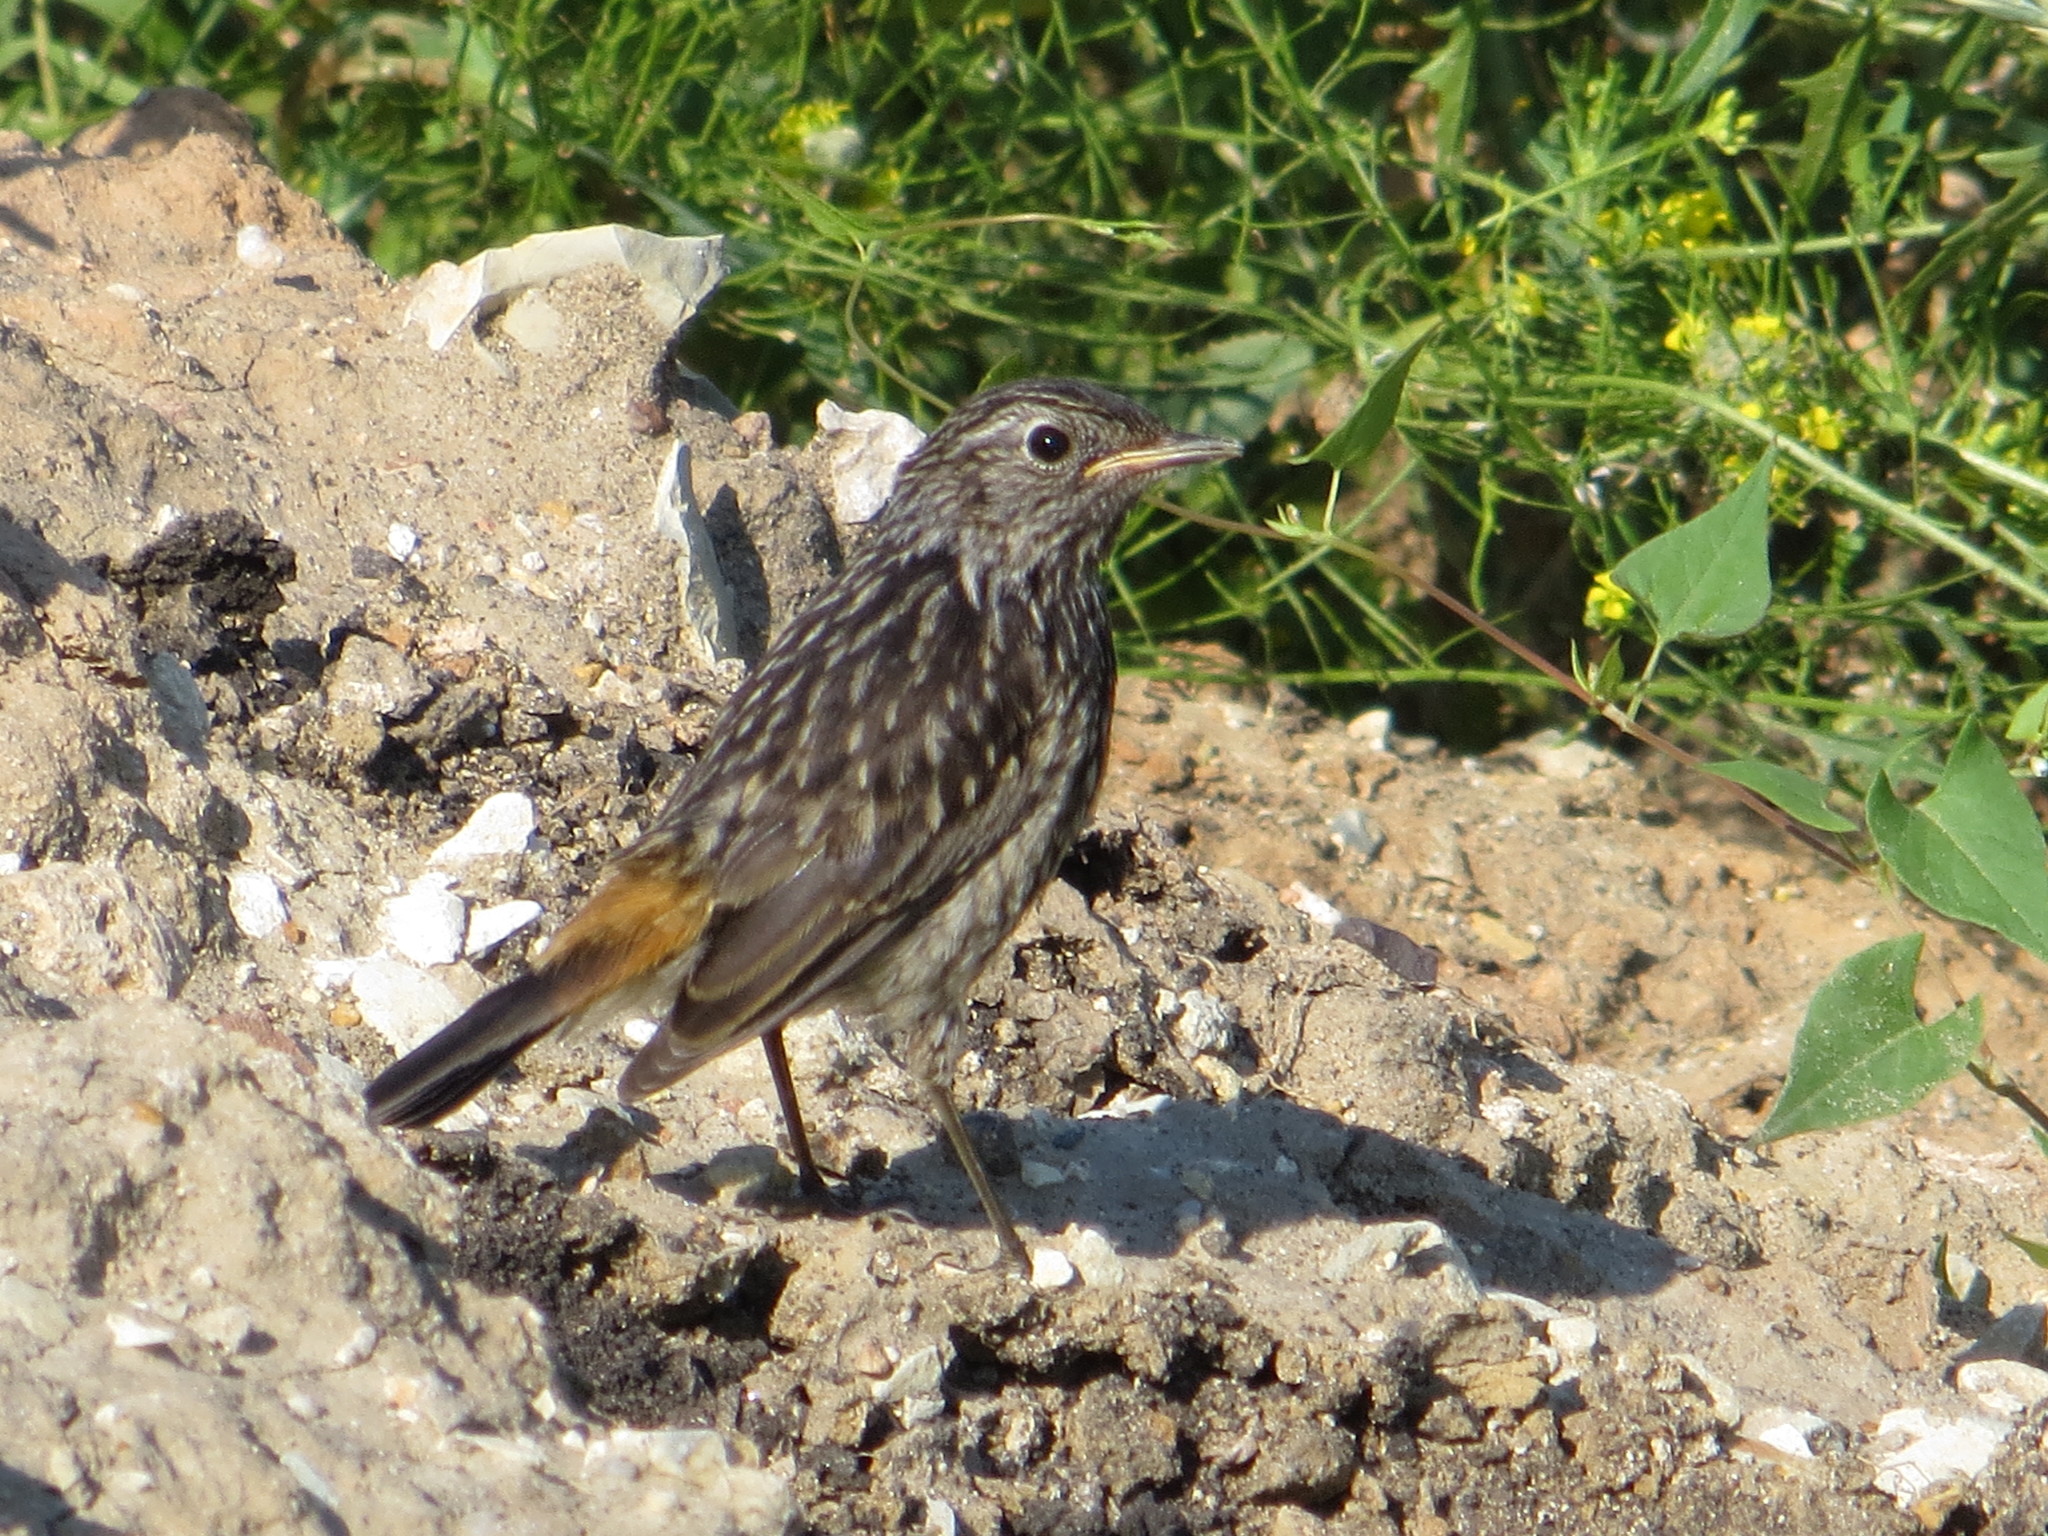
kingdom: Animalia
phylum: Chordata
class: Aves
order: Passeriformes
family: Muscicapidae
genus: Luscinia
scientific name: Luscinia svecica
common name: Bluethroat
